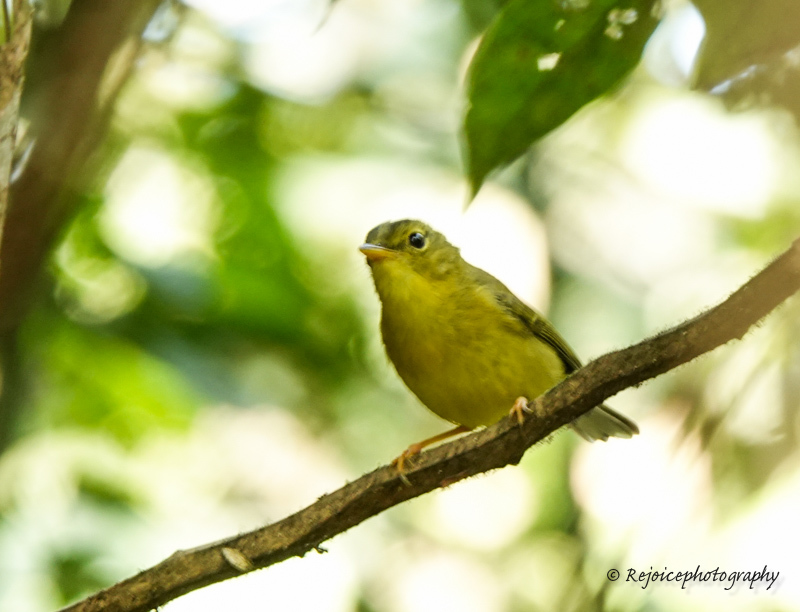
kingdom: Animalia
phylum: Chordata
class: Aves
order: Passeriformes
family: Phylloscopidae
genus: Seicercus
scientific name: Seicercus burkii
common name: Green-crowned warbler
